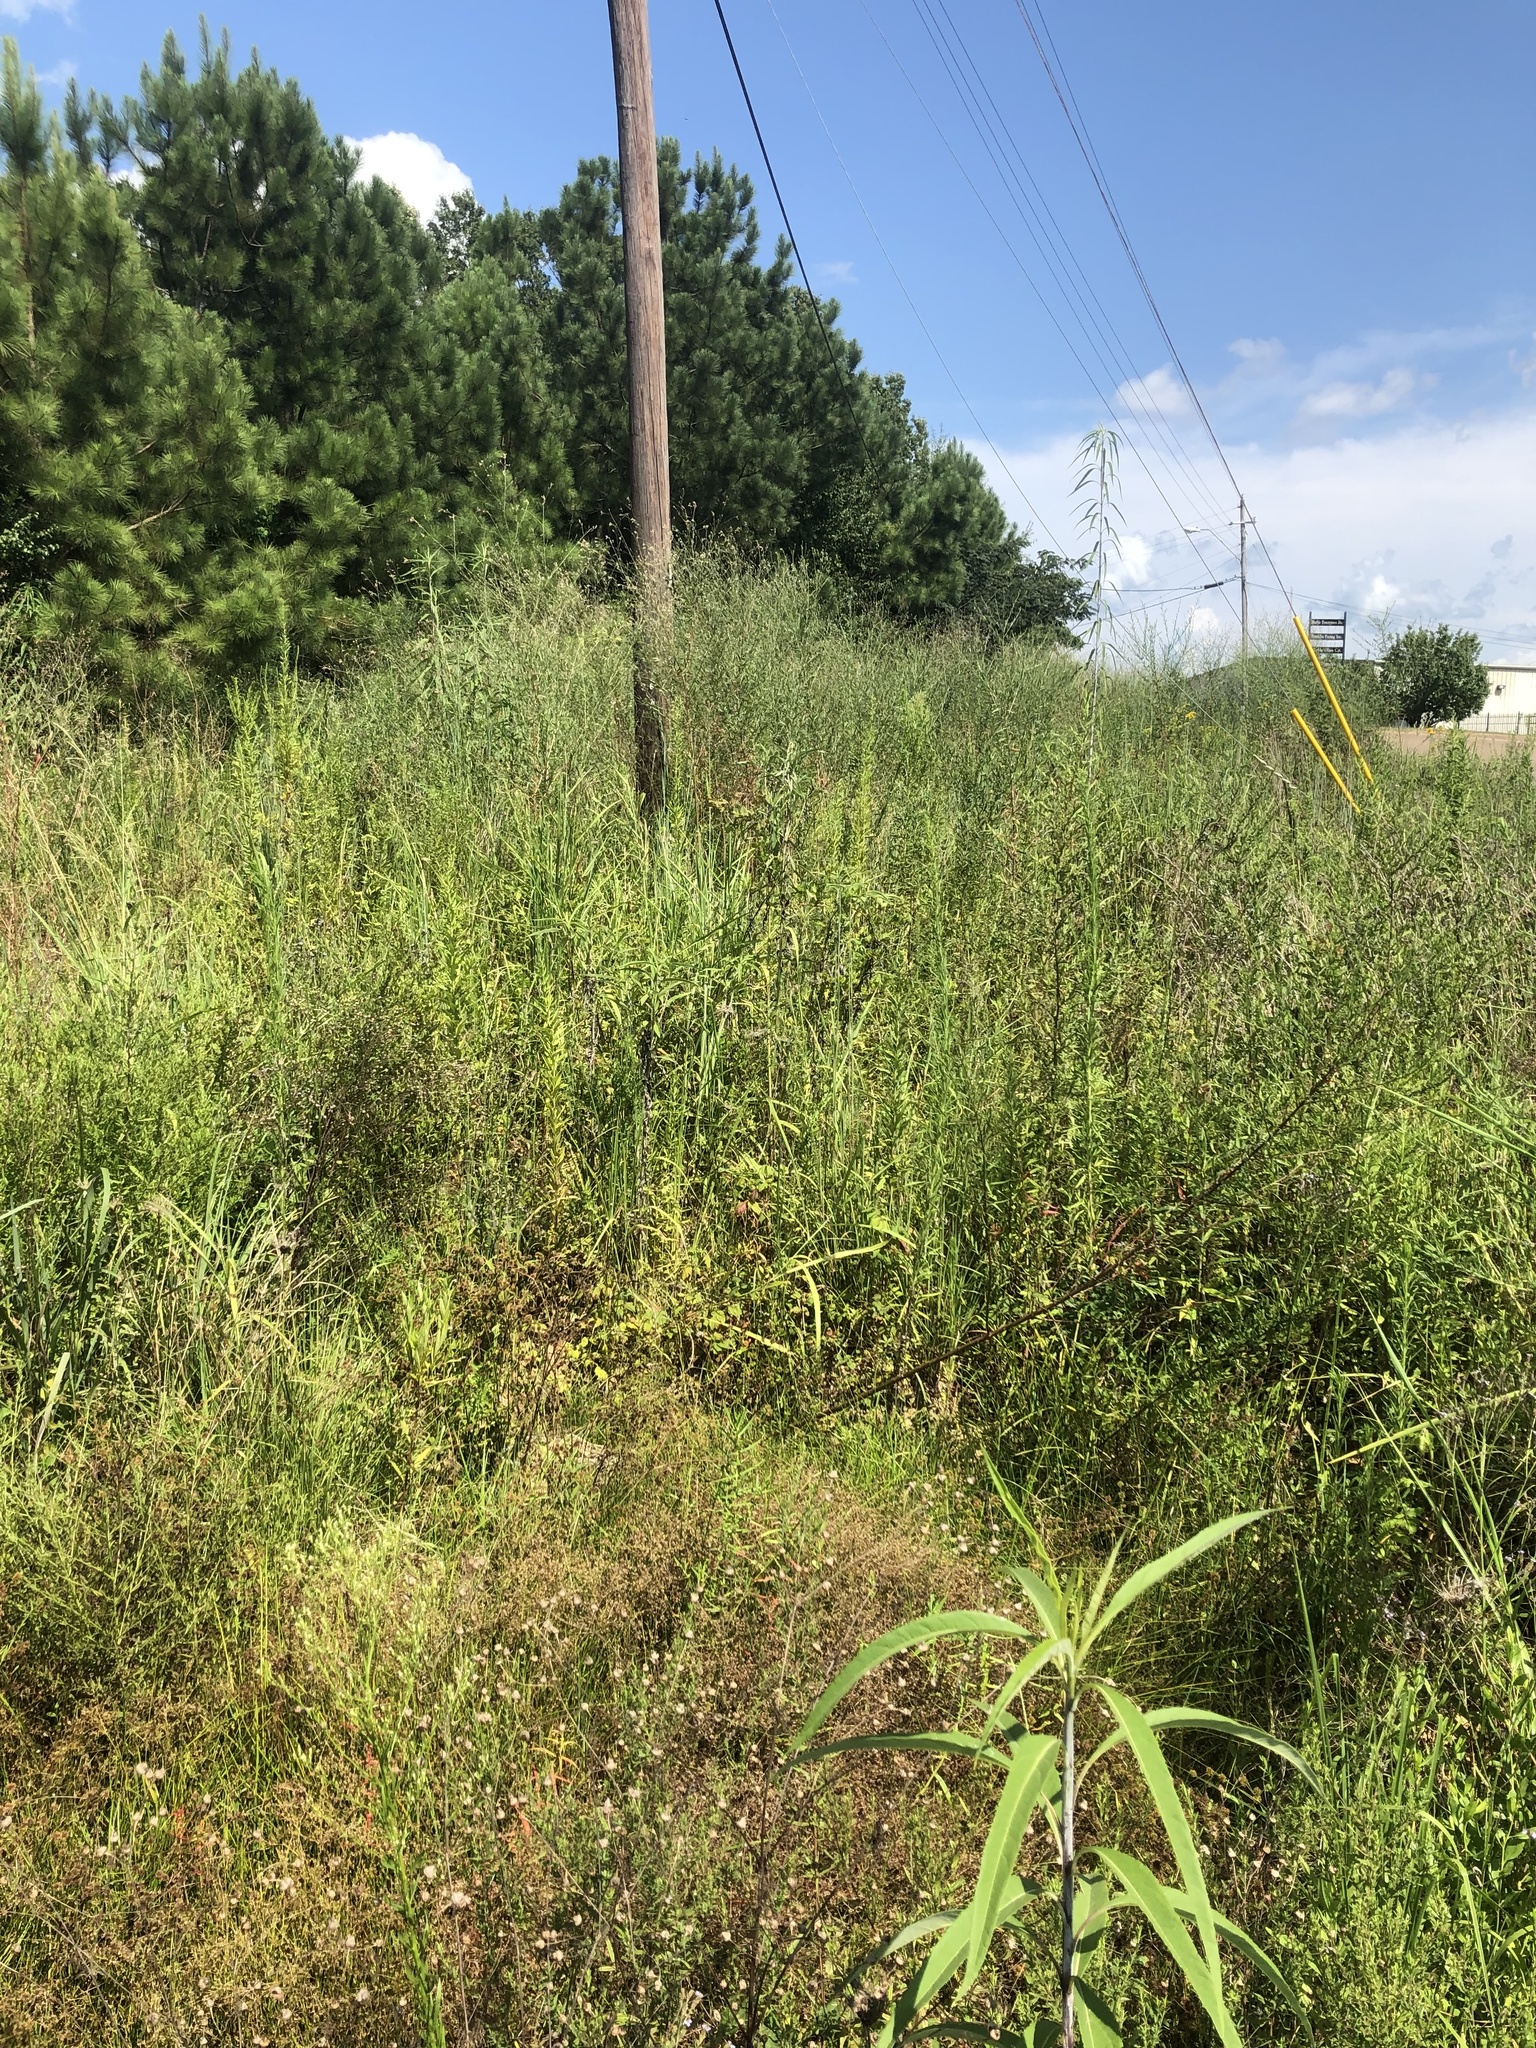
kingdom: Plantae
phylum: Tracheophyta
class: Magnoliopsida
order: Myrtales
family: Onagraceae
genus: Oenothera
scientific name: Oenothera filiformis
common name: Longflower beeblossom
